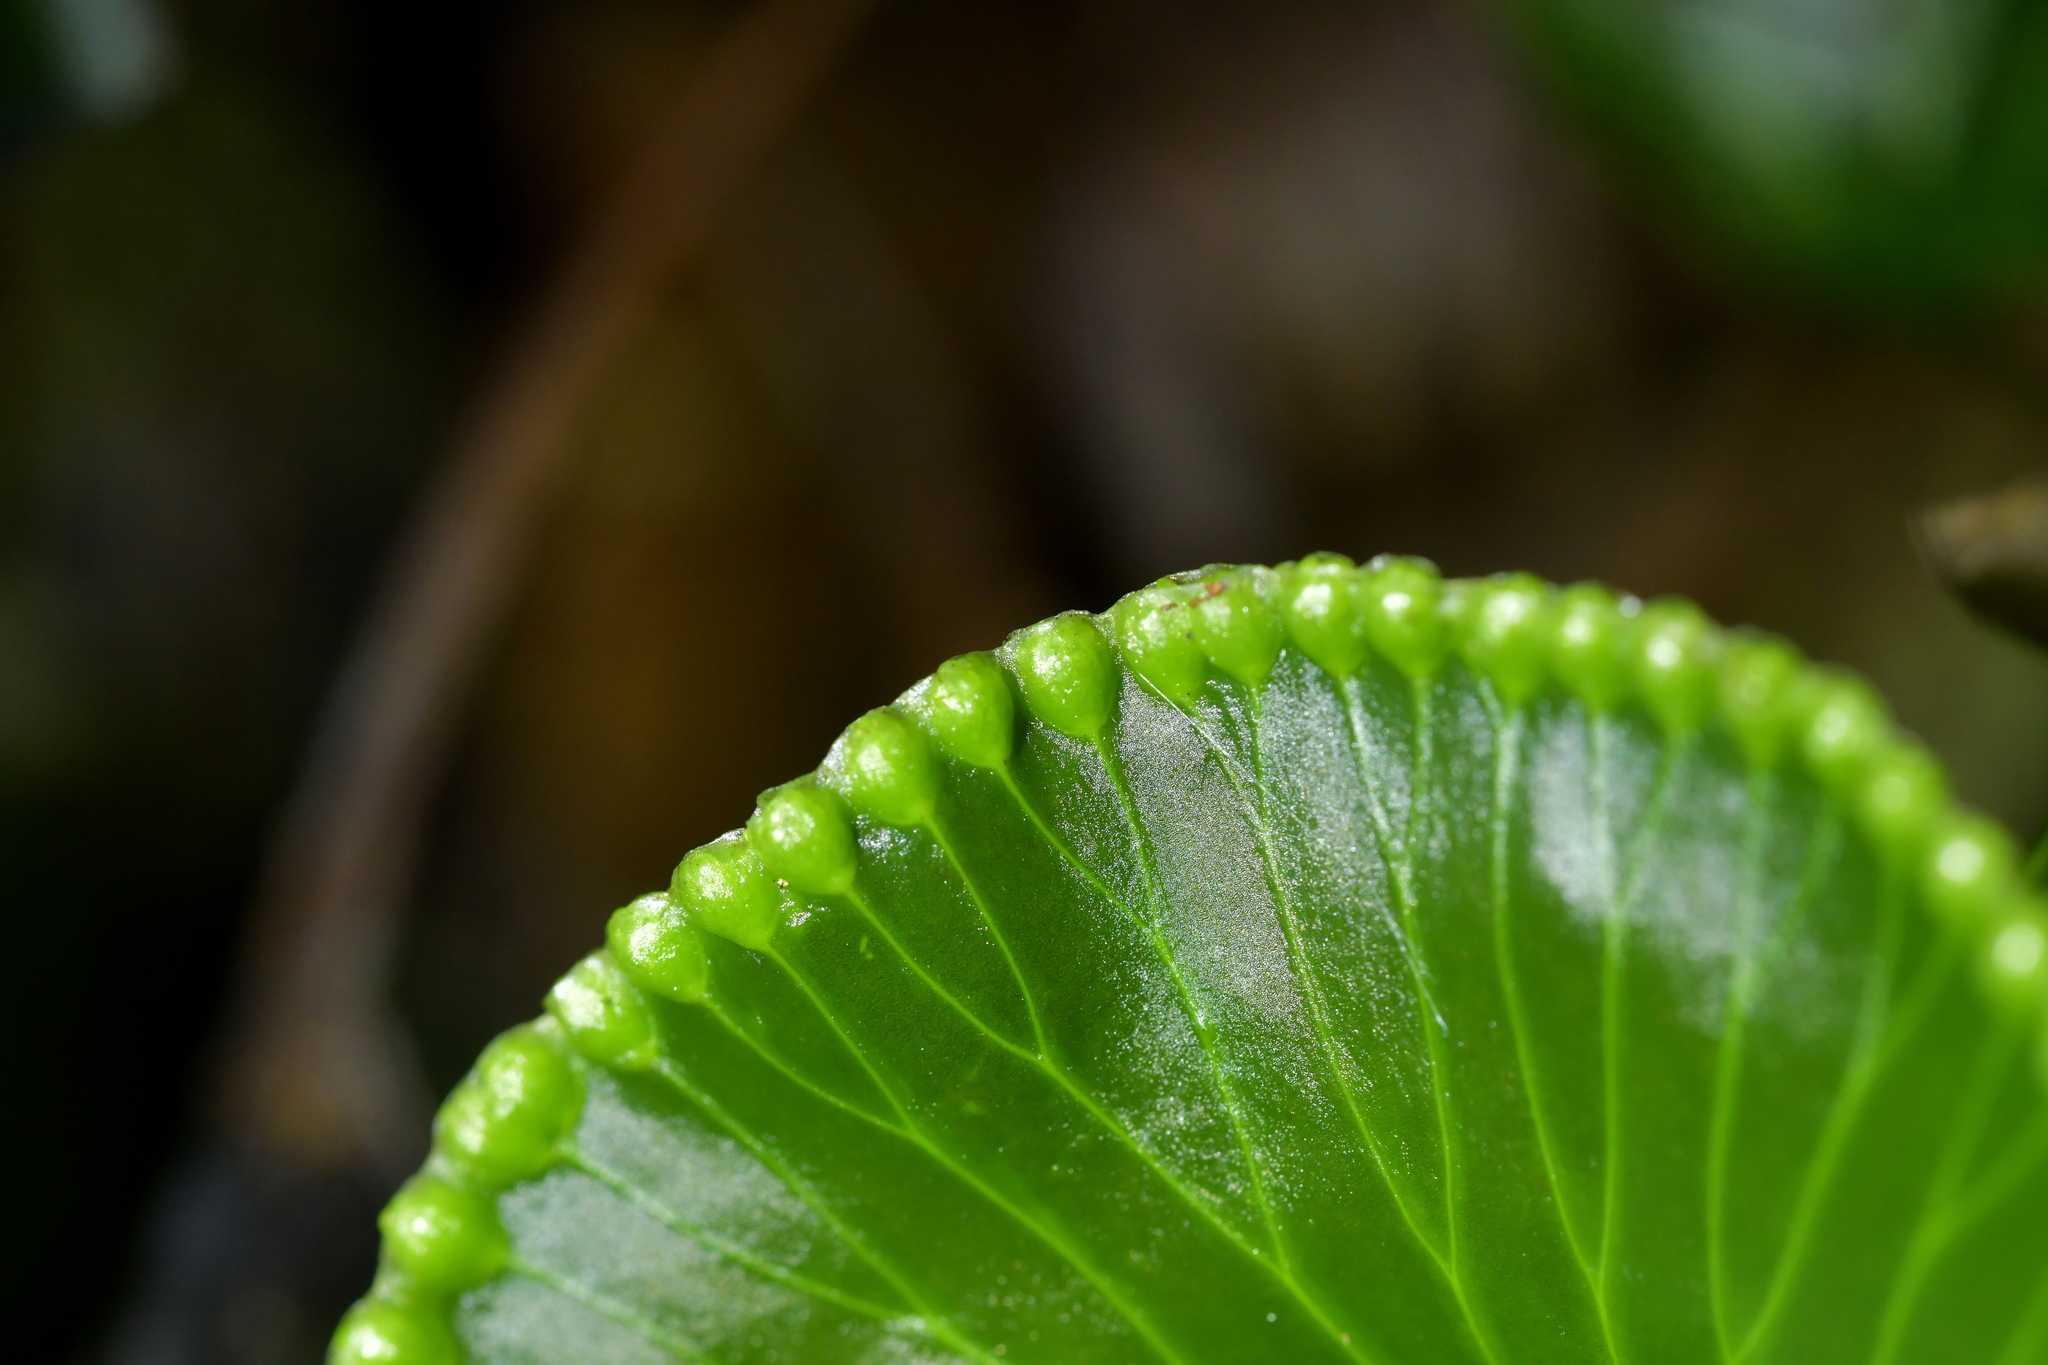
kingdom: Plantae
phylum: Tracheophyta
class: Polypodiopsida
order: Hymenophyllales
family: Hymenophyllaceae
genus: Hymenophyllum
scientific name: Hymenophyllum nephrophyllum
